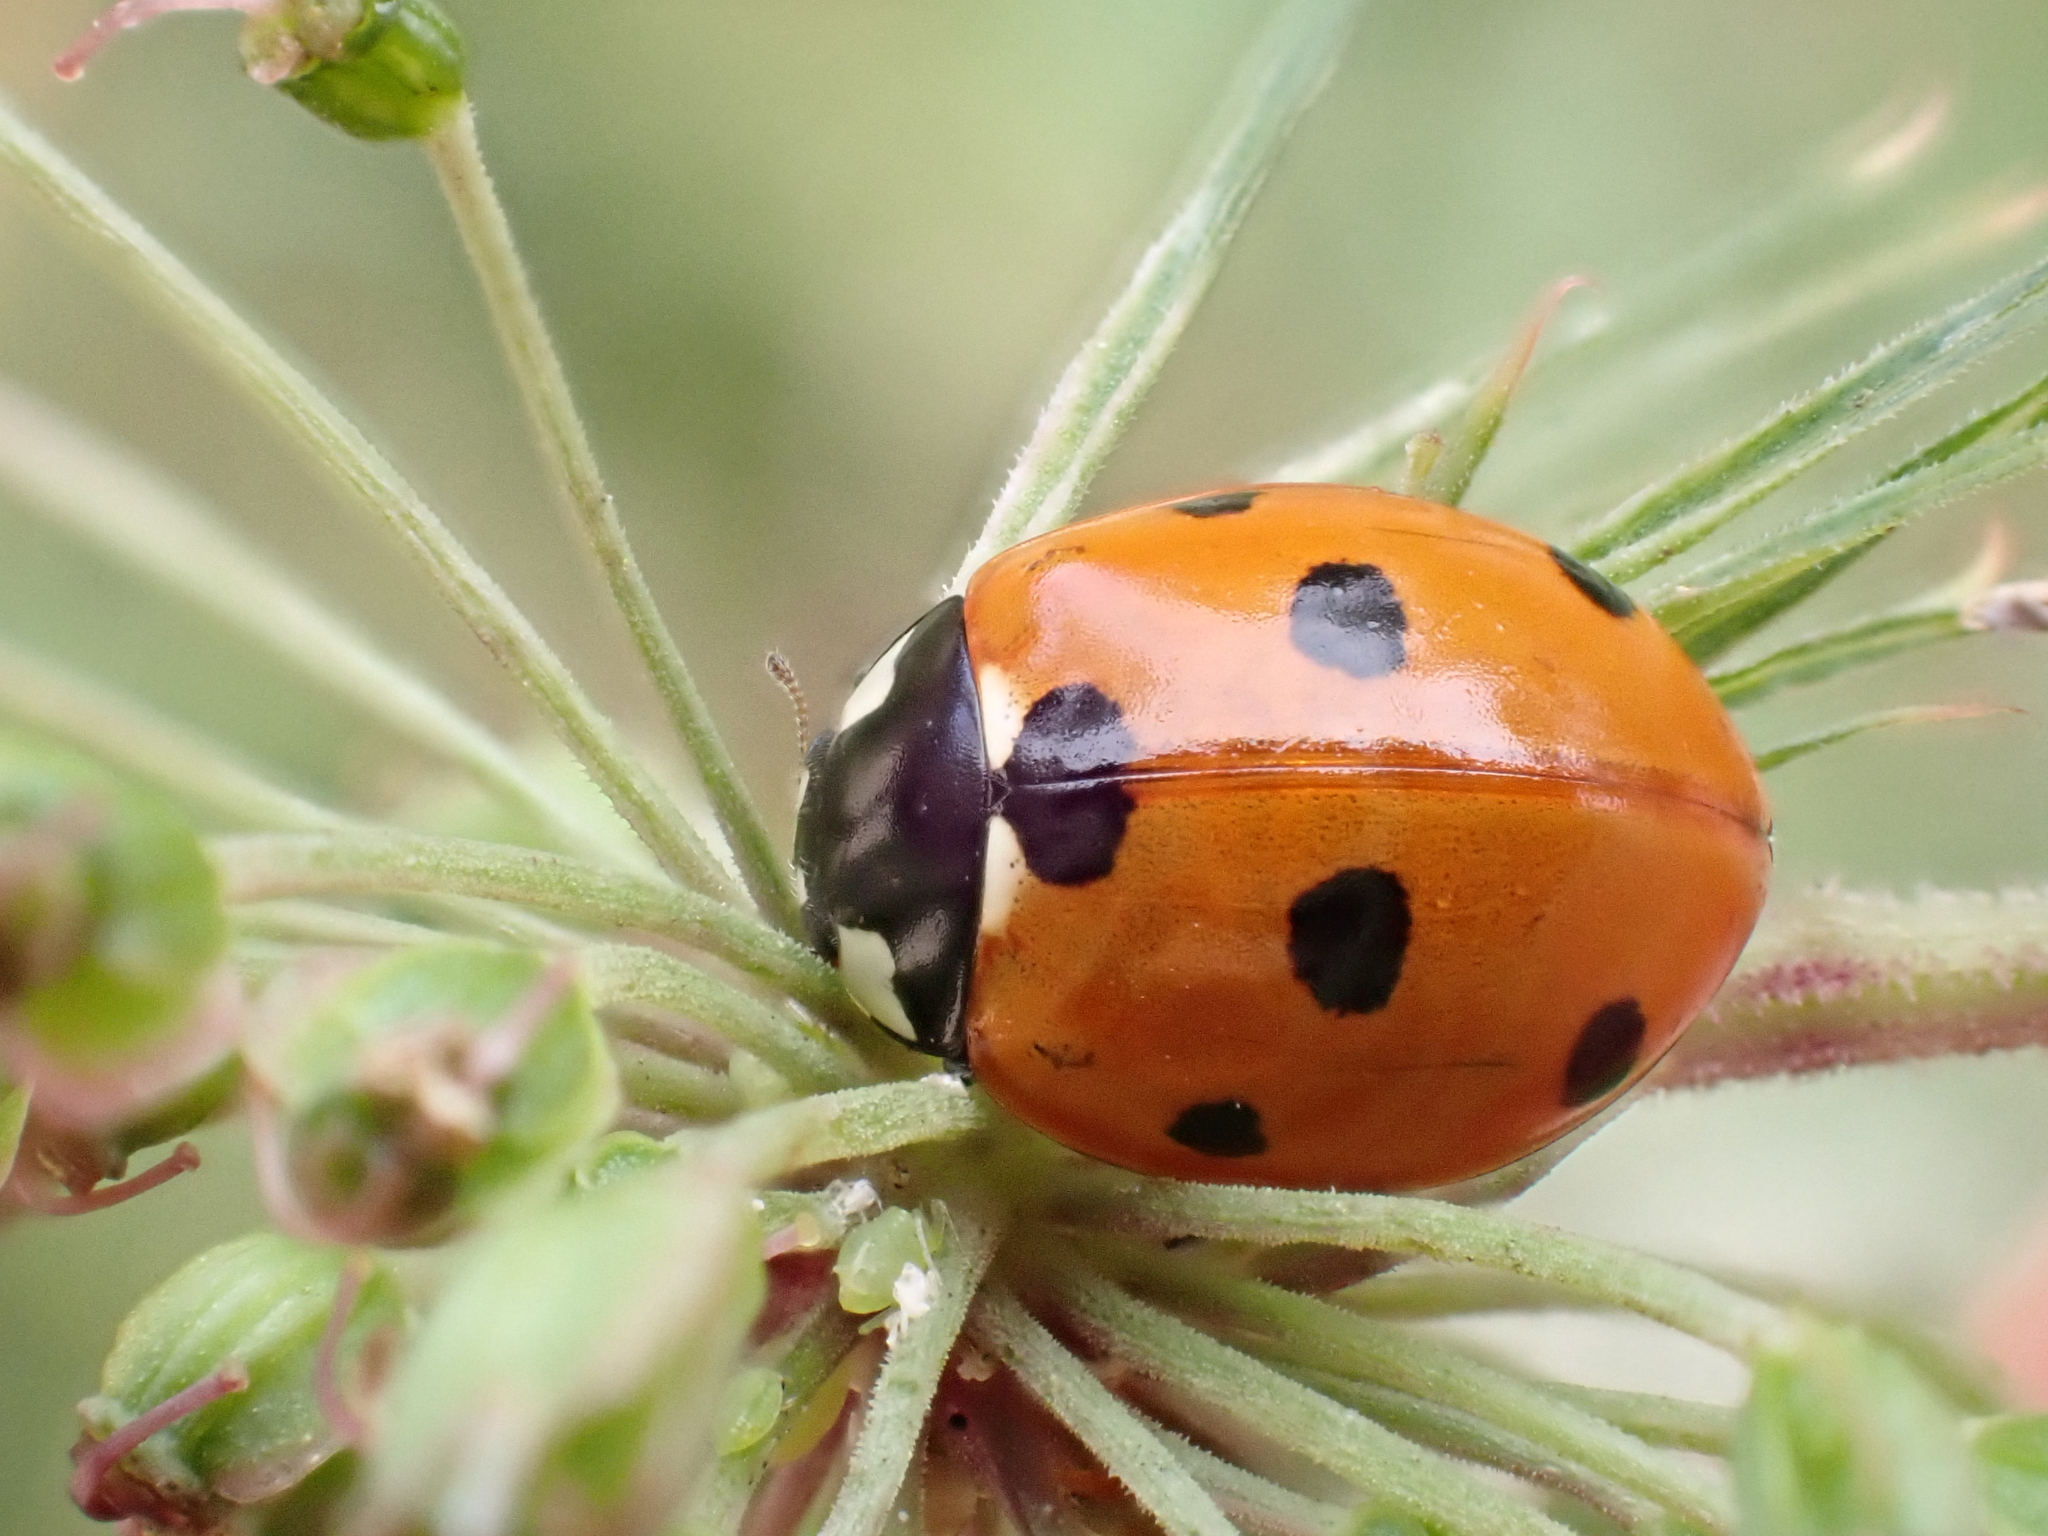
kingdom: Animalia
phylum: Arthropoda
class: Insecta
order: Coleoptera
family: Coccinellidae
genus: Coccinella
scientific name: Coccinella septempunctata
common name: Sevenspotted lady beetle
